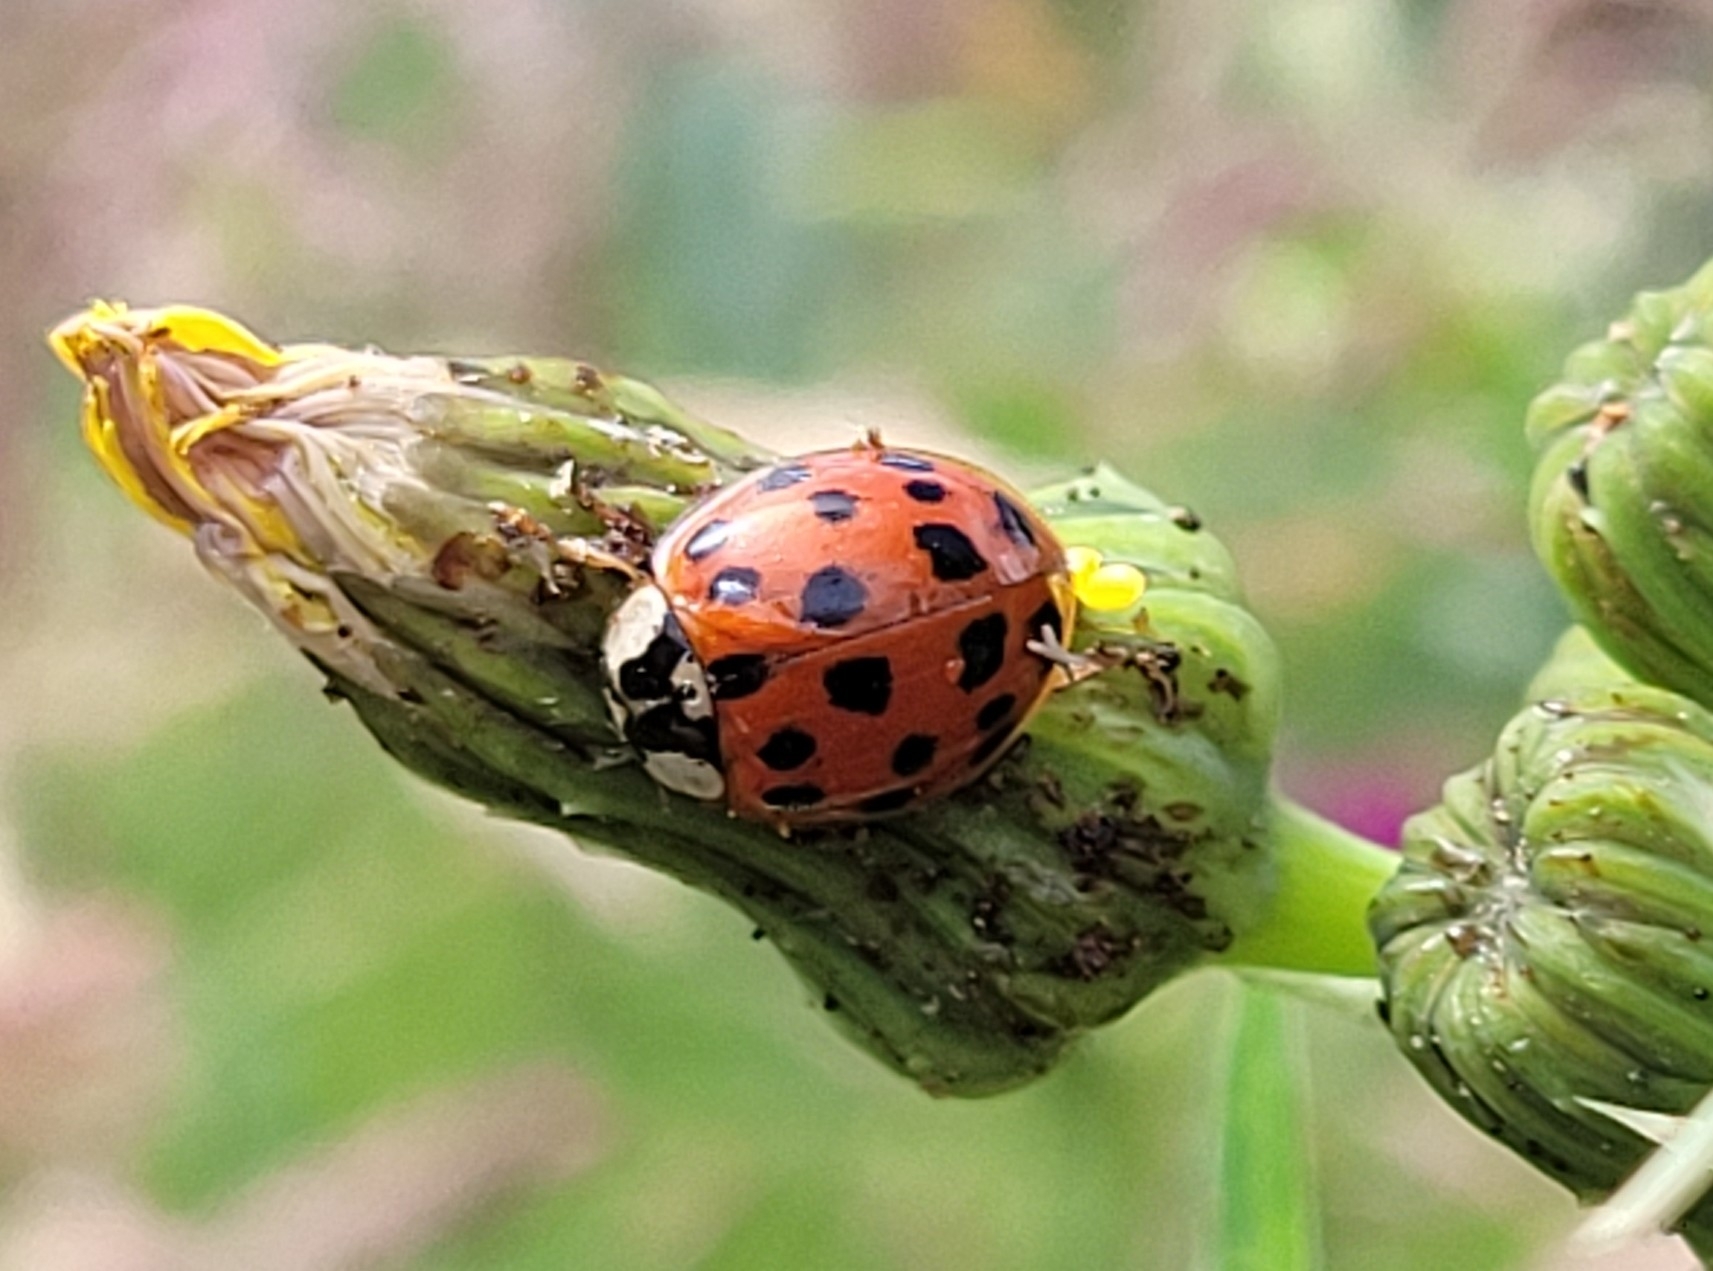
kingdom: Animalia
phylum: Arthropoda
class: Insecta
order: Coleoptera
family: Coccinellidae
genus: Harmonia
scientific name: Harmonia axyridis
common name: Harlequin ladybird
